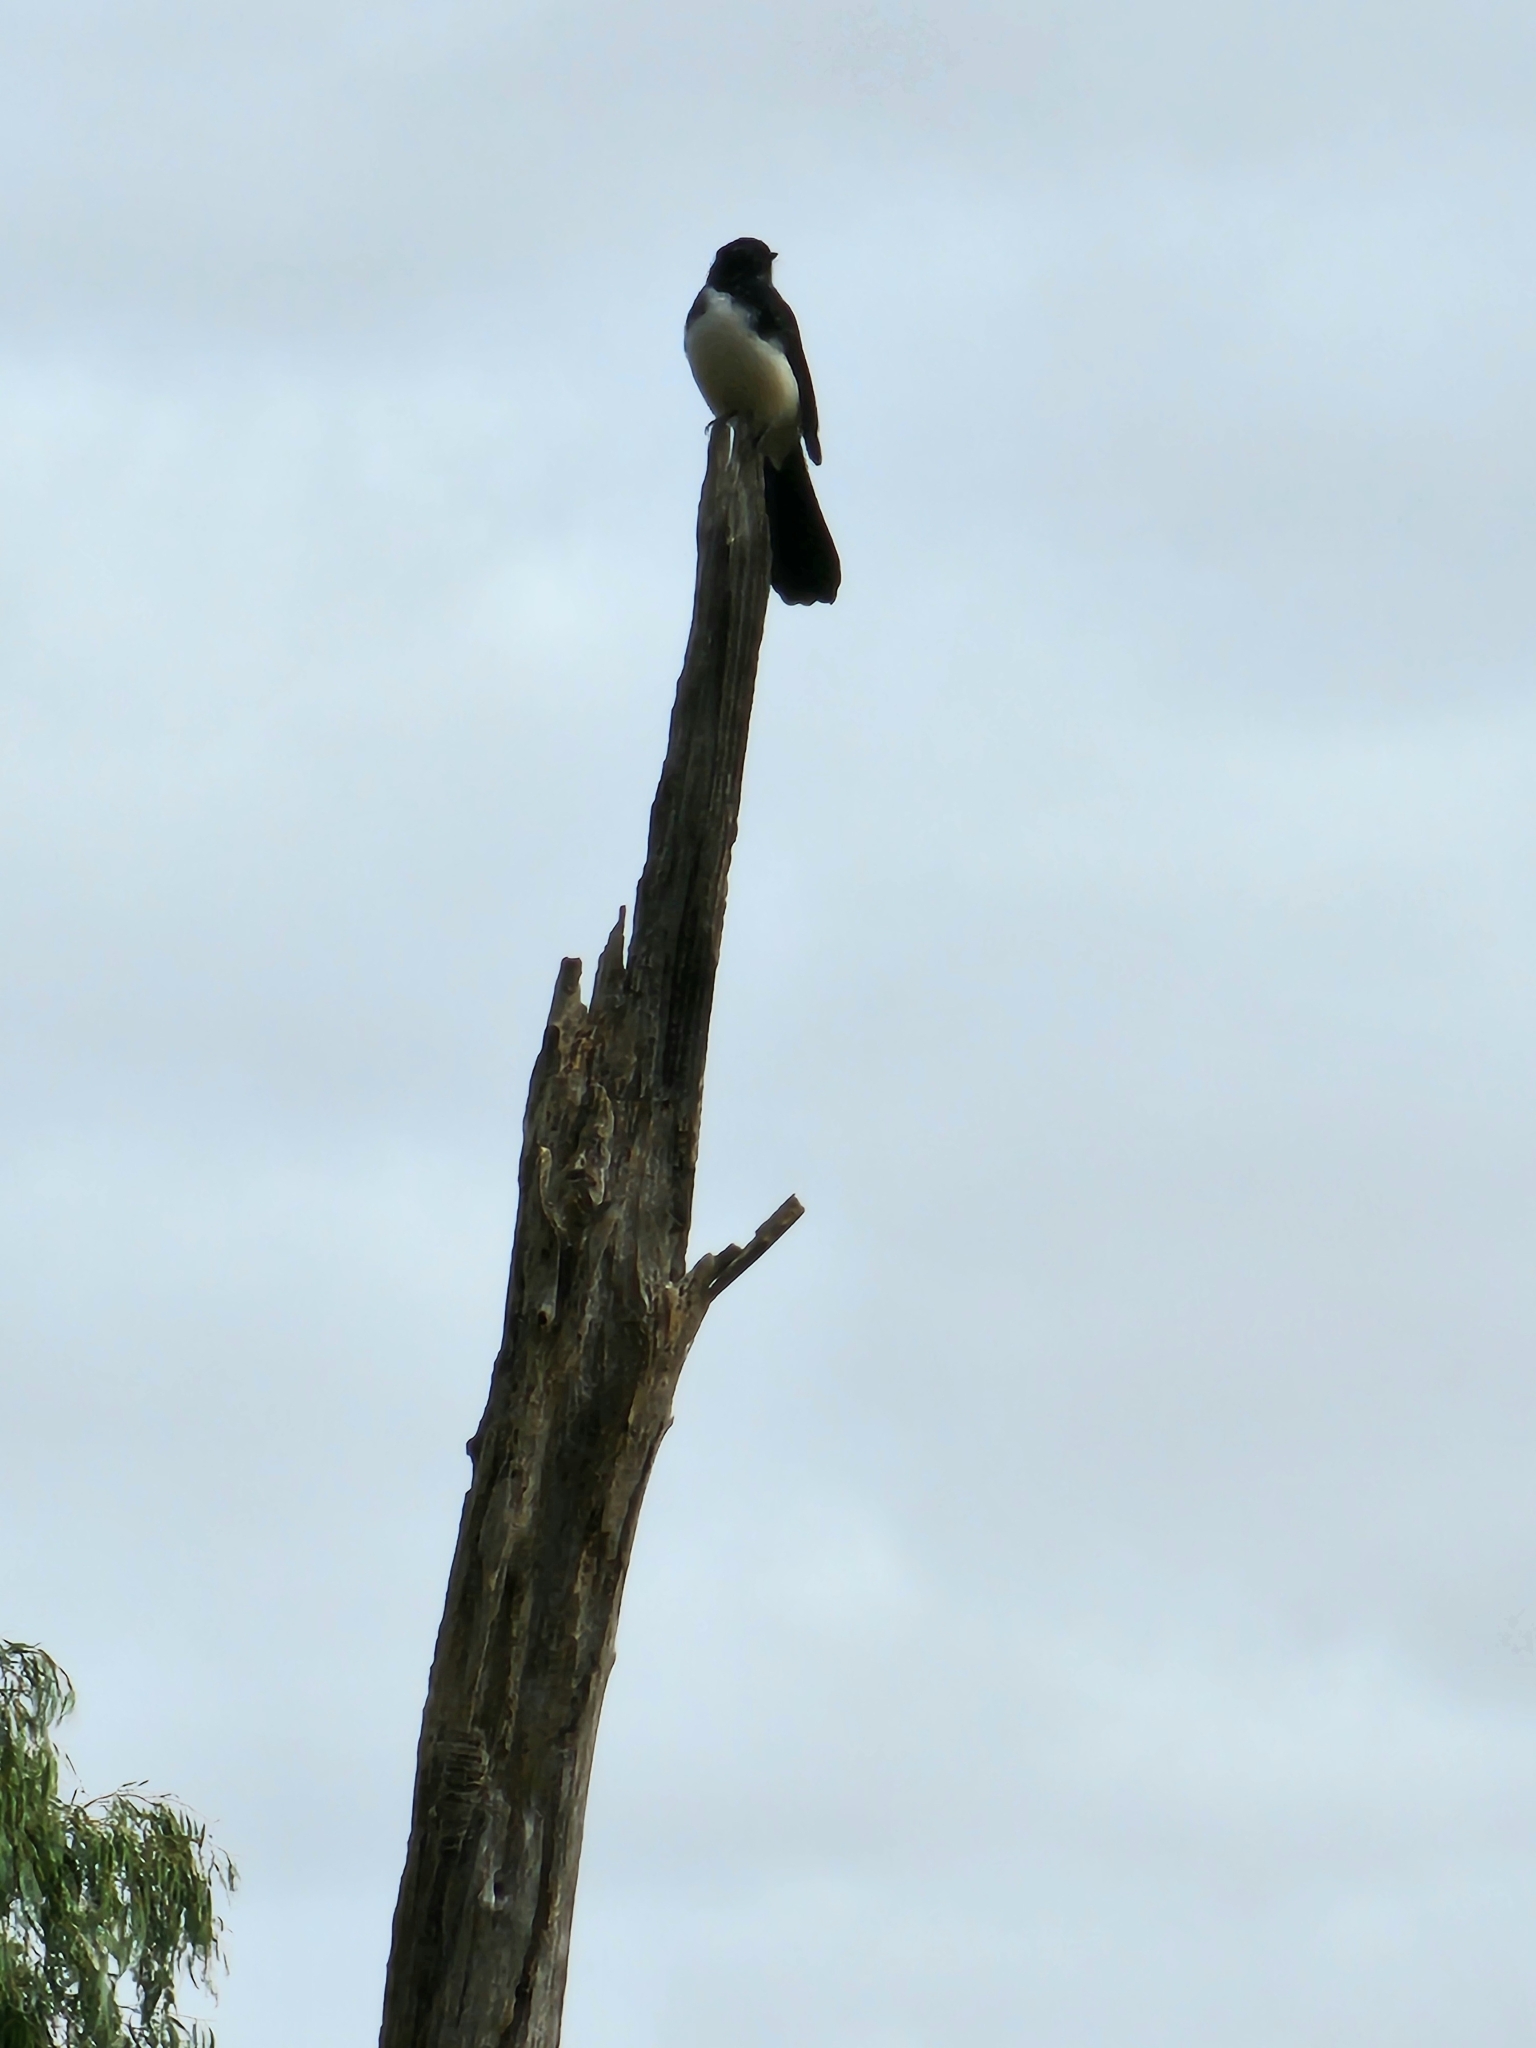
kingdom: Animalia
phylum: Chordata
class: Aves
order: Passeriformes
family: Rhipiduridae
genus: Rhipidura
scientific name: Rhipidura leucophrys
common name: Willie wagtail
